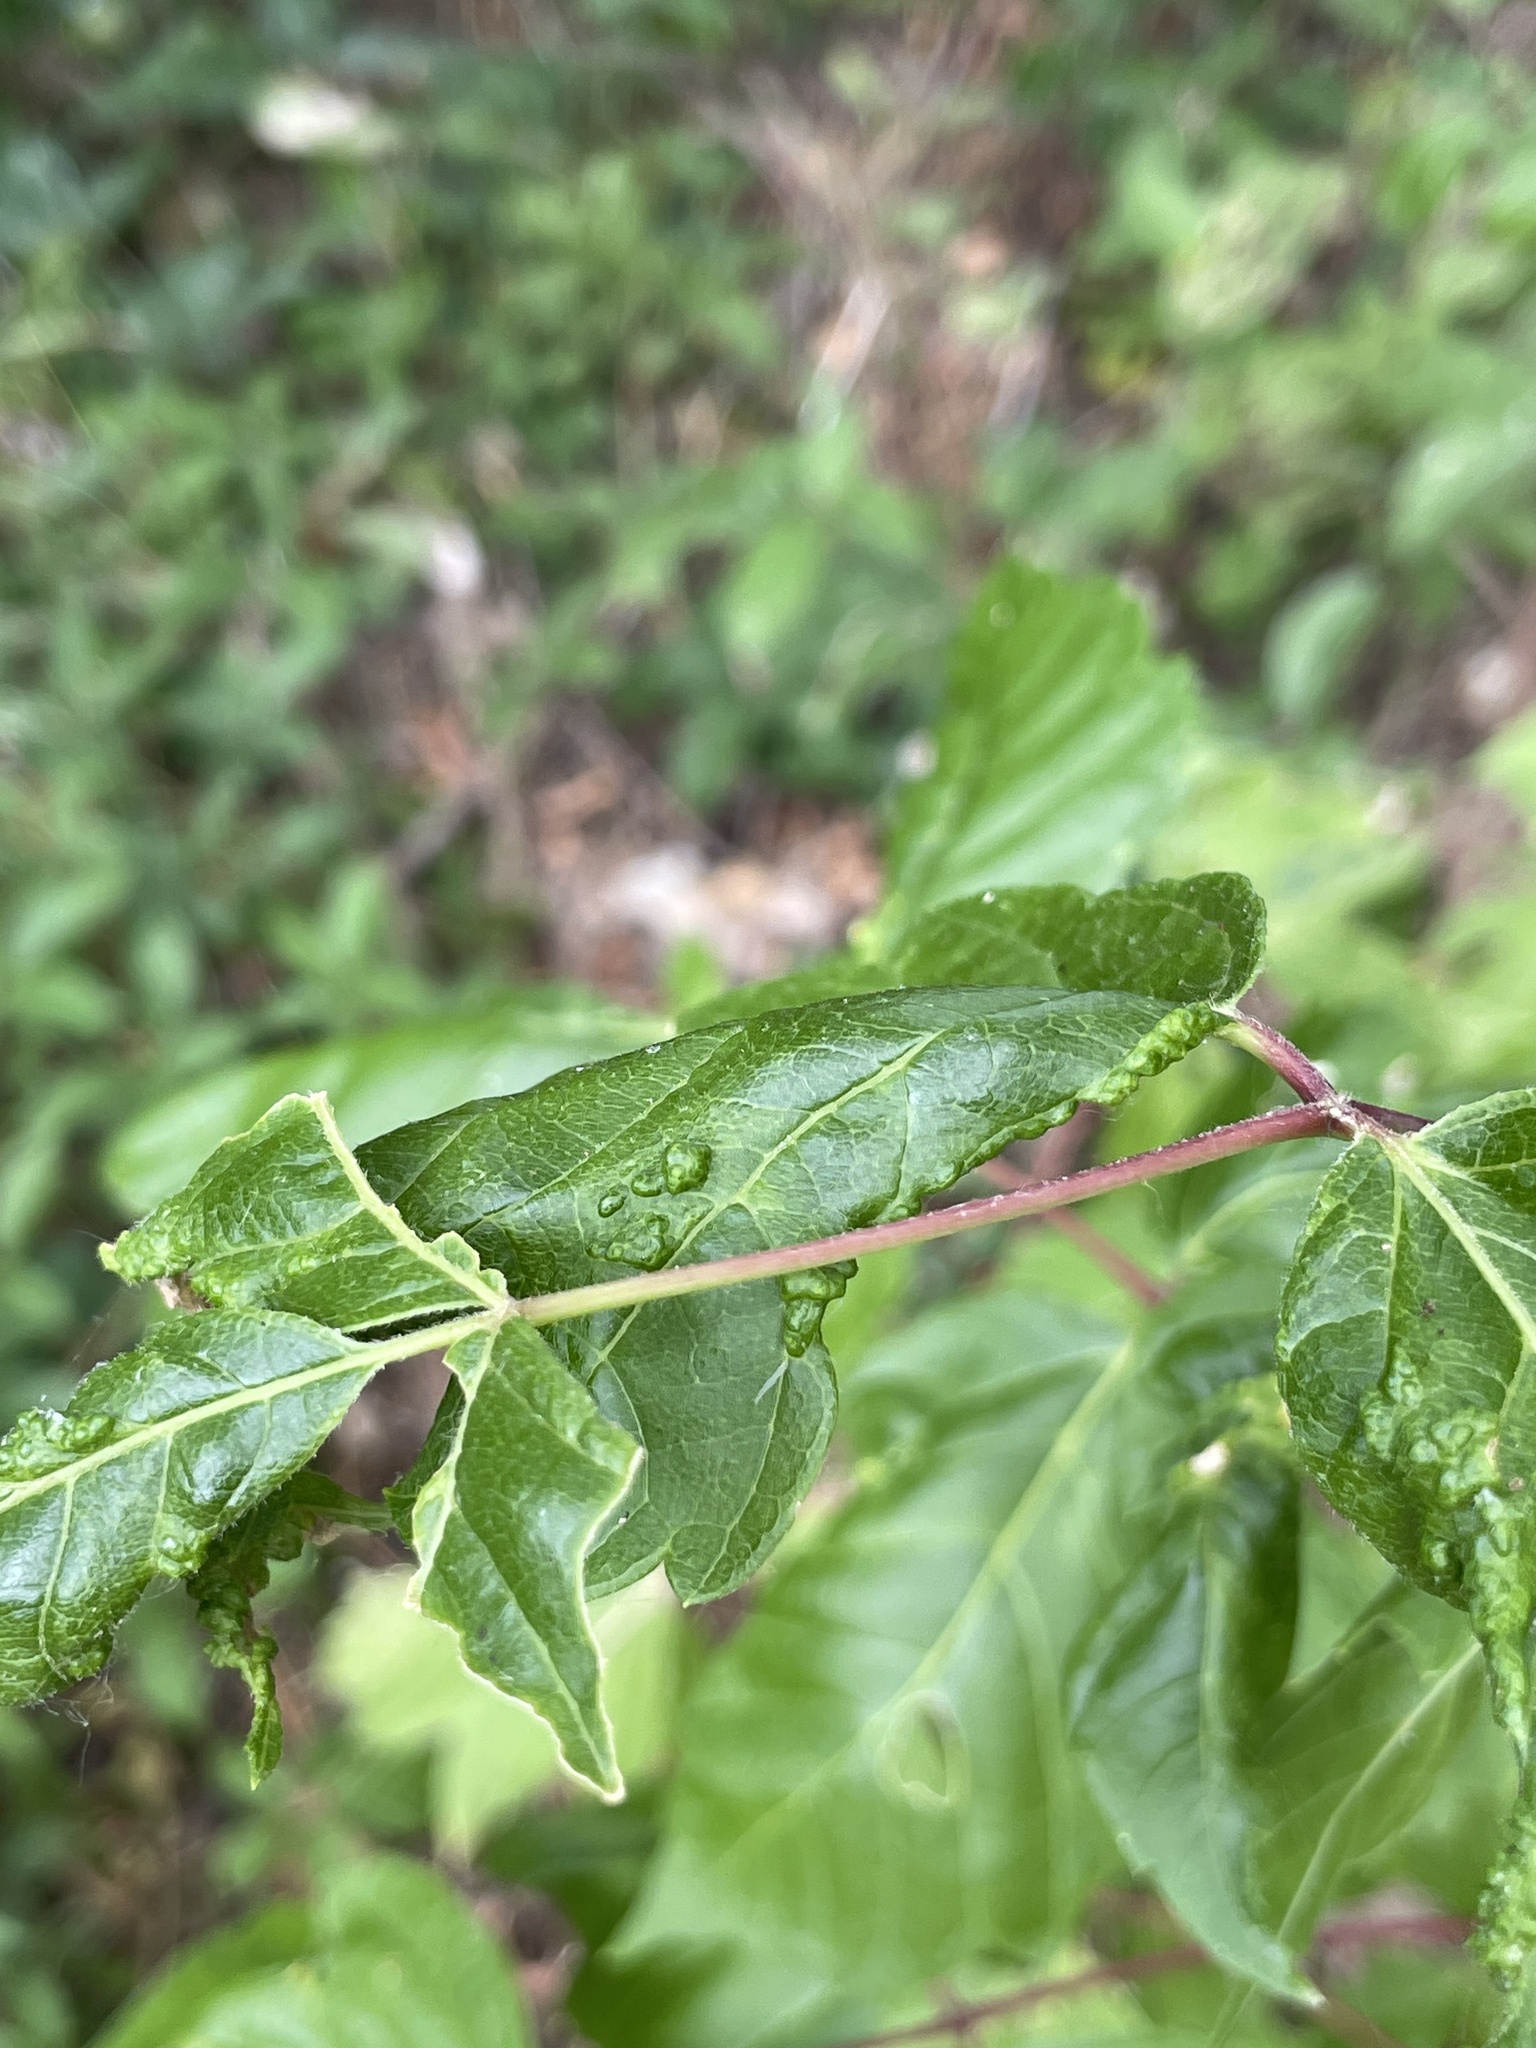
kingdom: Animalia
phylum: Arthropoda
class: Arachnida
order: Trombidiformes
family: Eriophyidae
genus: Aceria
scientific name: Aceria
